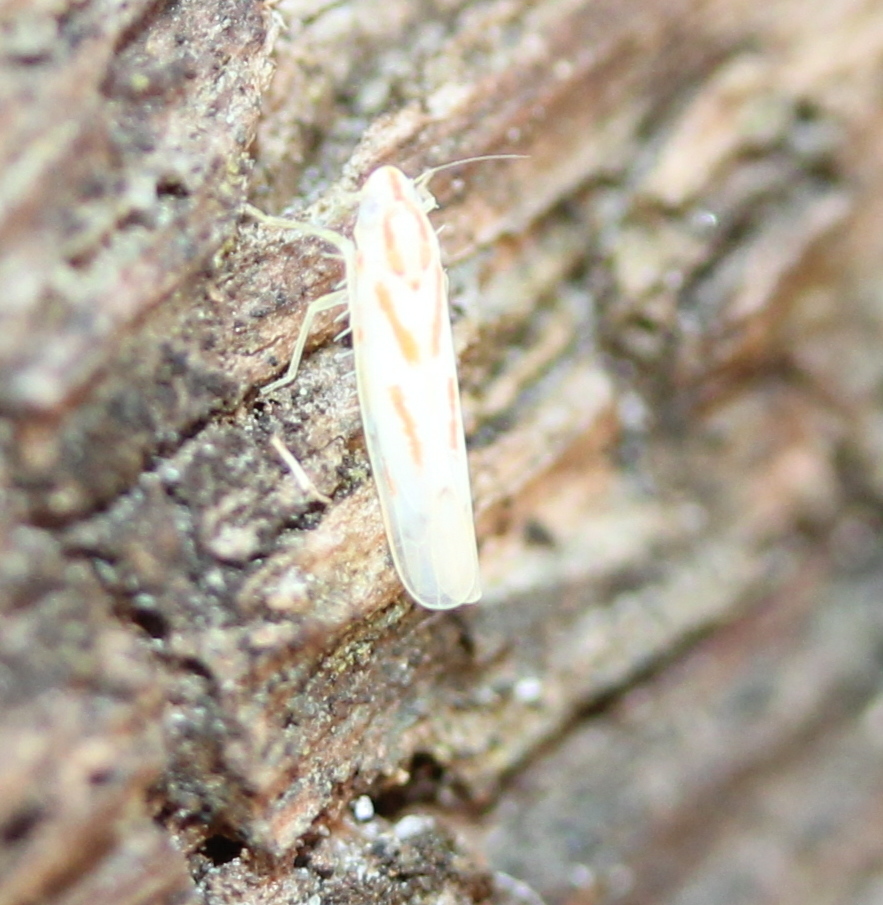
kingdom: Animalia
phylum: Arthropoda
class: Insecta
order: Hemiptera
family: Cicadellidae
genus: Dikrella
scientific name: Dikrella cruentata
